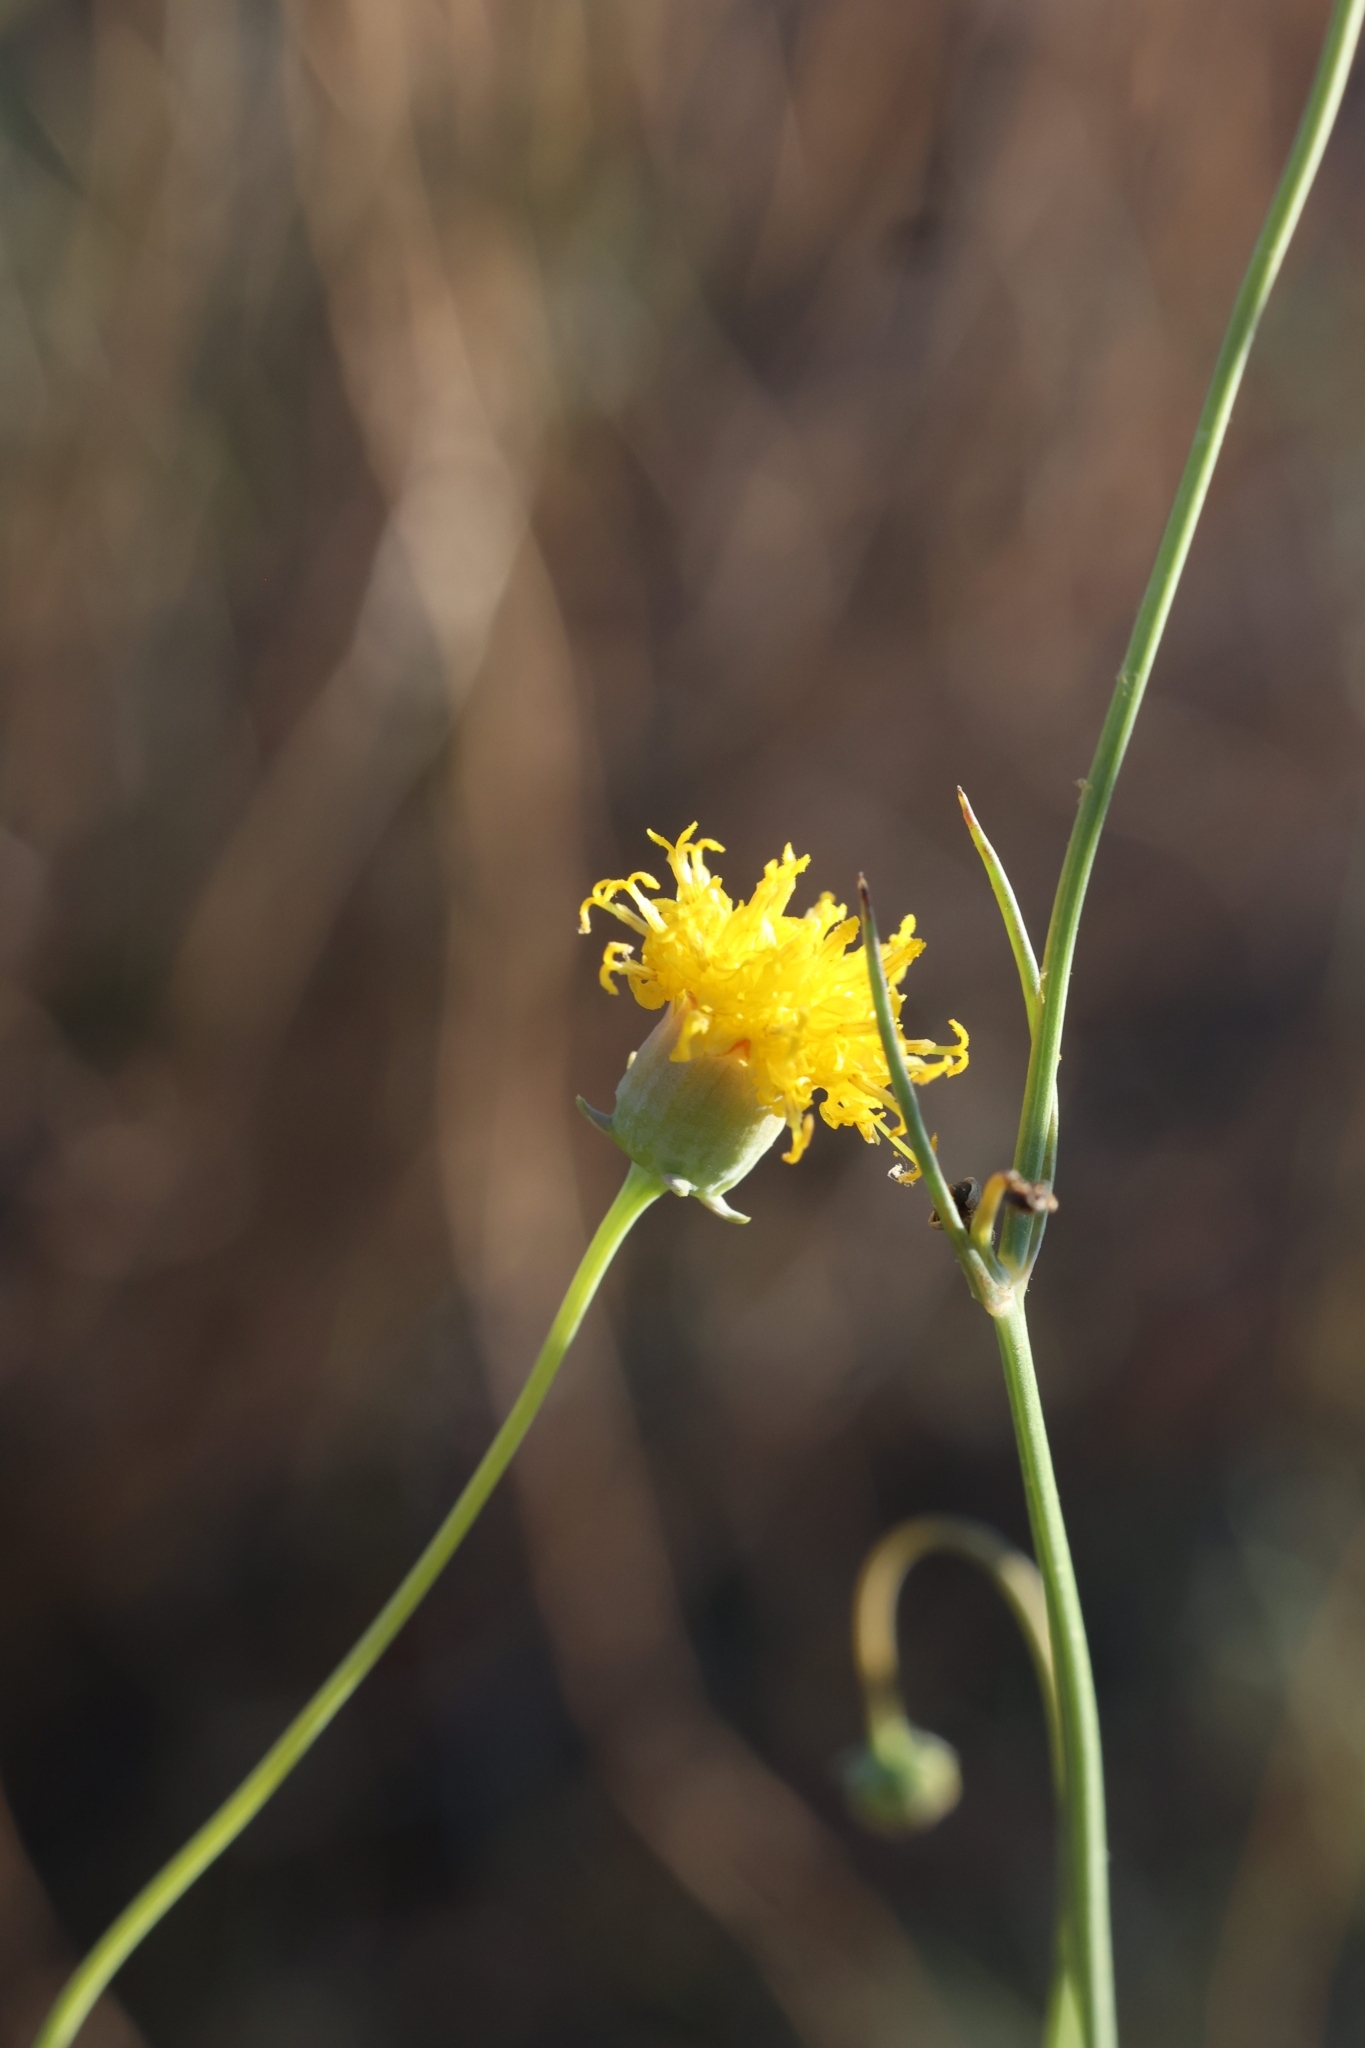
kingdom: Plantae
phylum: Tracheophyta
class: Magnoliopsida
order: Asterales
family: Asteraceae
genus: Thelesperma
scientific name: Thelesperma megapotamicum
